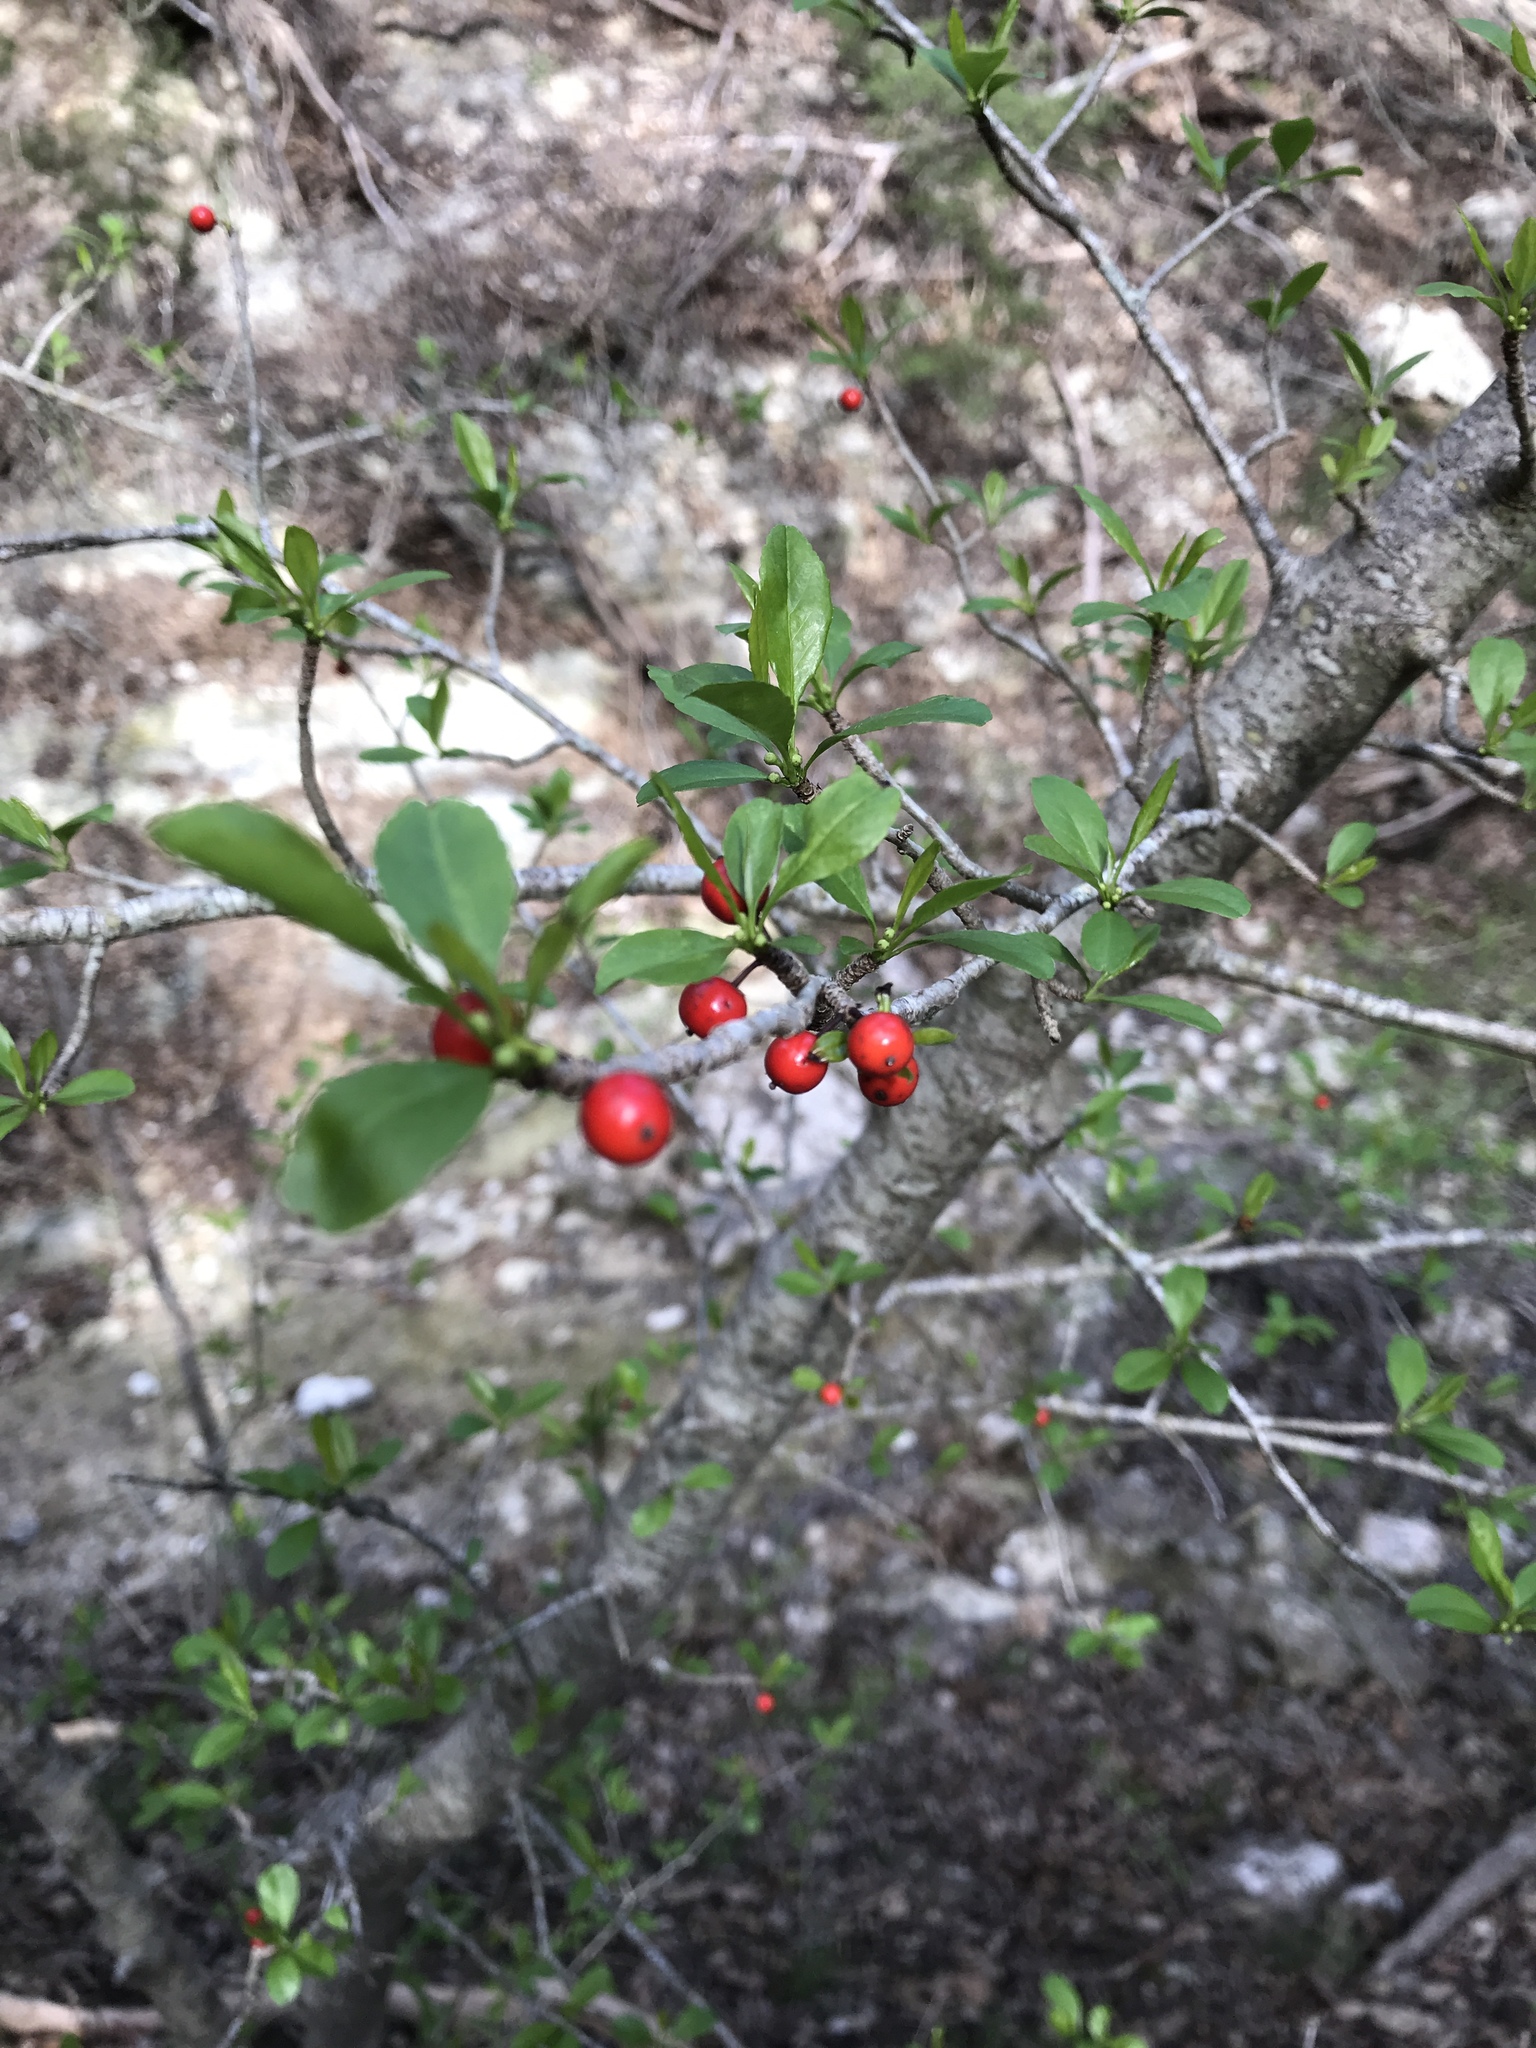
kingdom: Plantae
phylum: Tracheophyta
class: Magnoliopsida
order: Aquifoliales
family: Aquifoliaceae
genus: Ilex
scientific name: Ilex decidua
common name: Possum-haw
